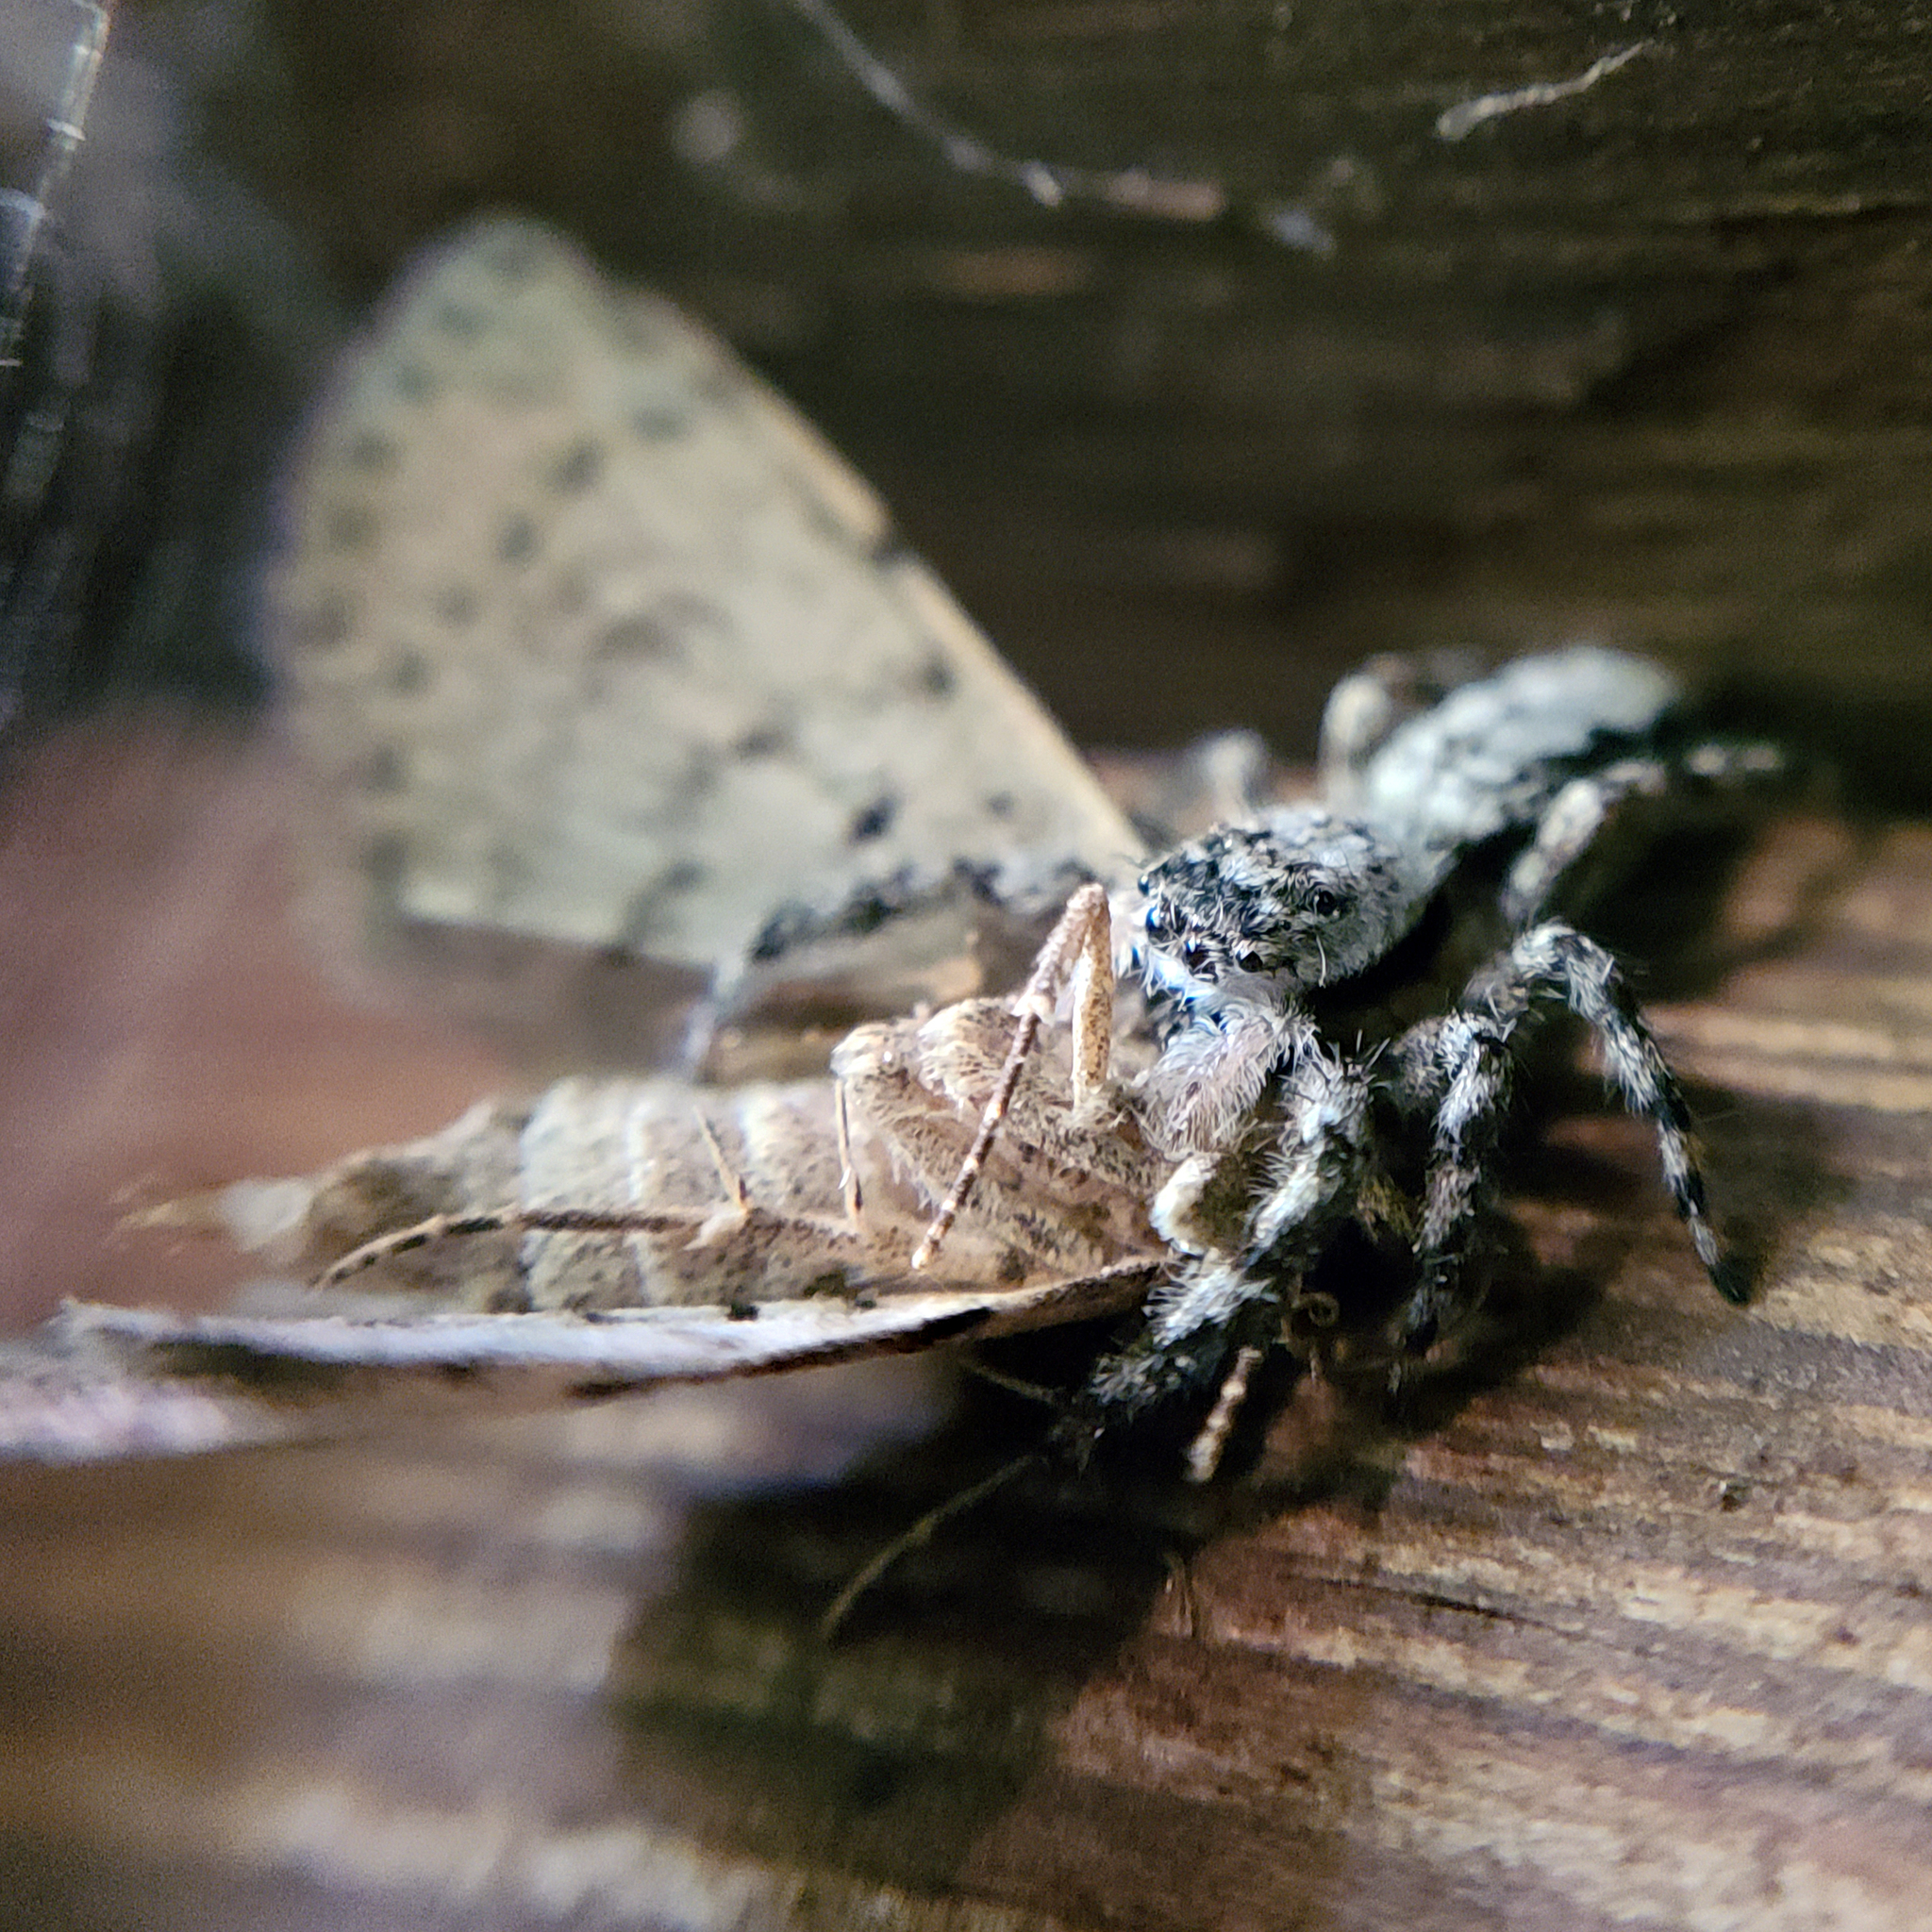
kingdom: Animalia
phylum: Arthropoda
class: Arachnida
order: Araneae
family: Salticidae
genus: Platycryptus
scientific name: Platycryptus undatus
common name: Tan jumping spider
